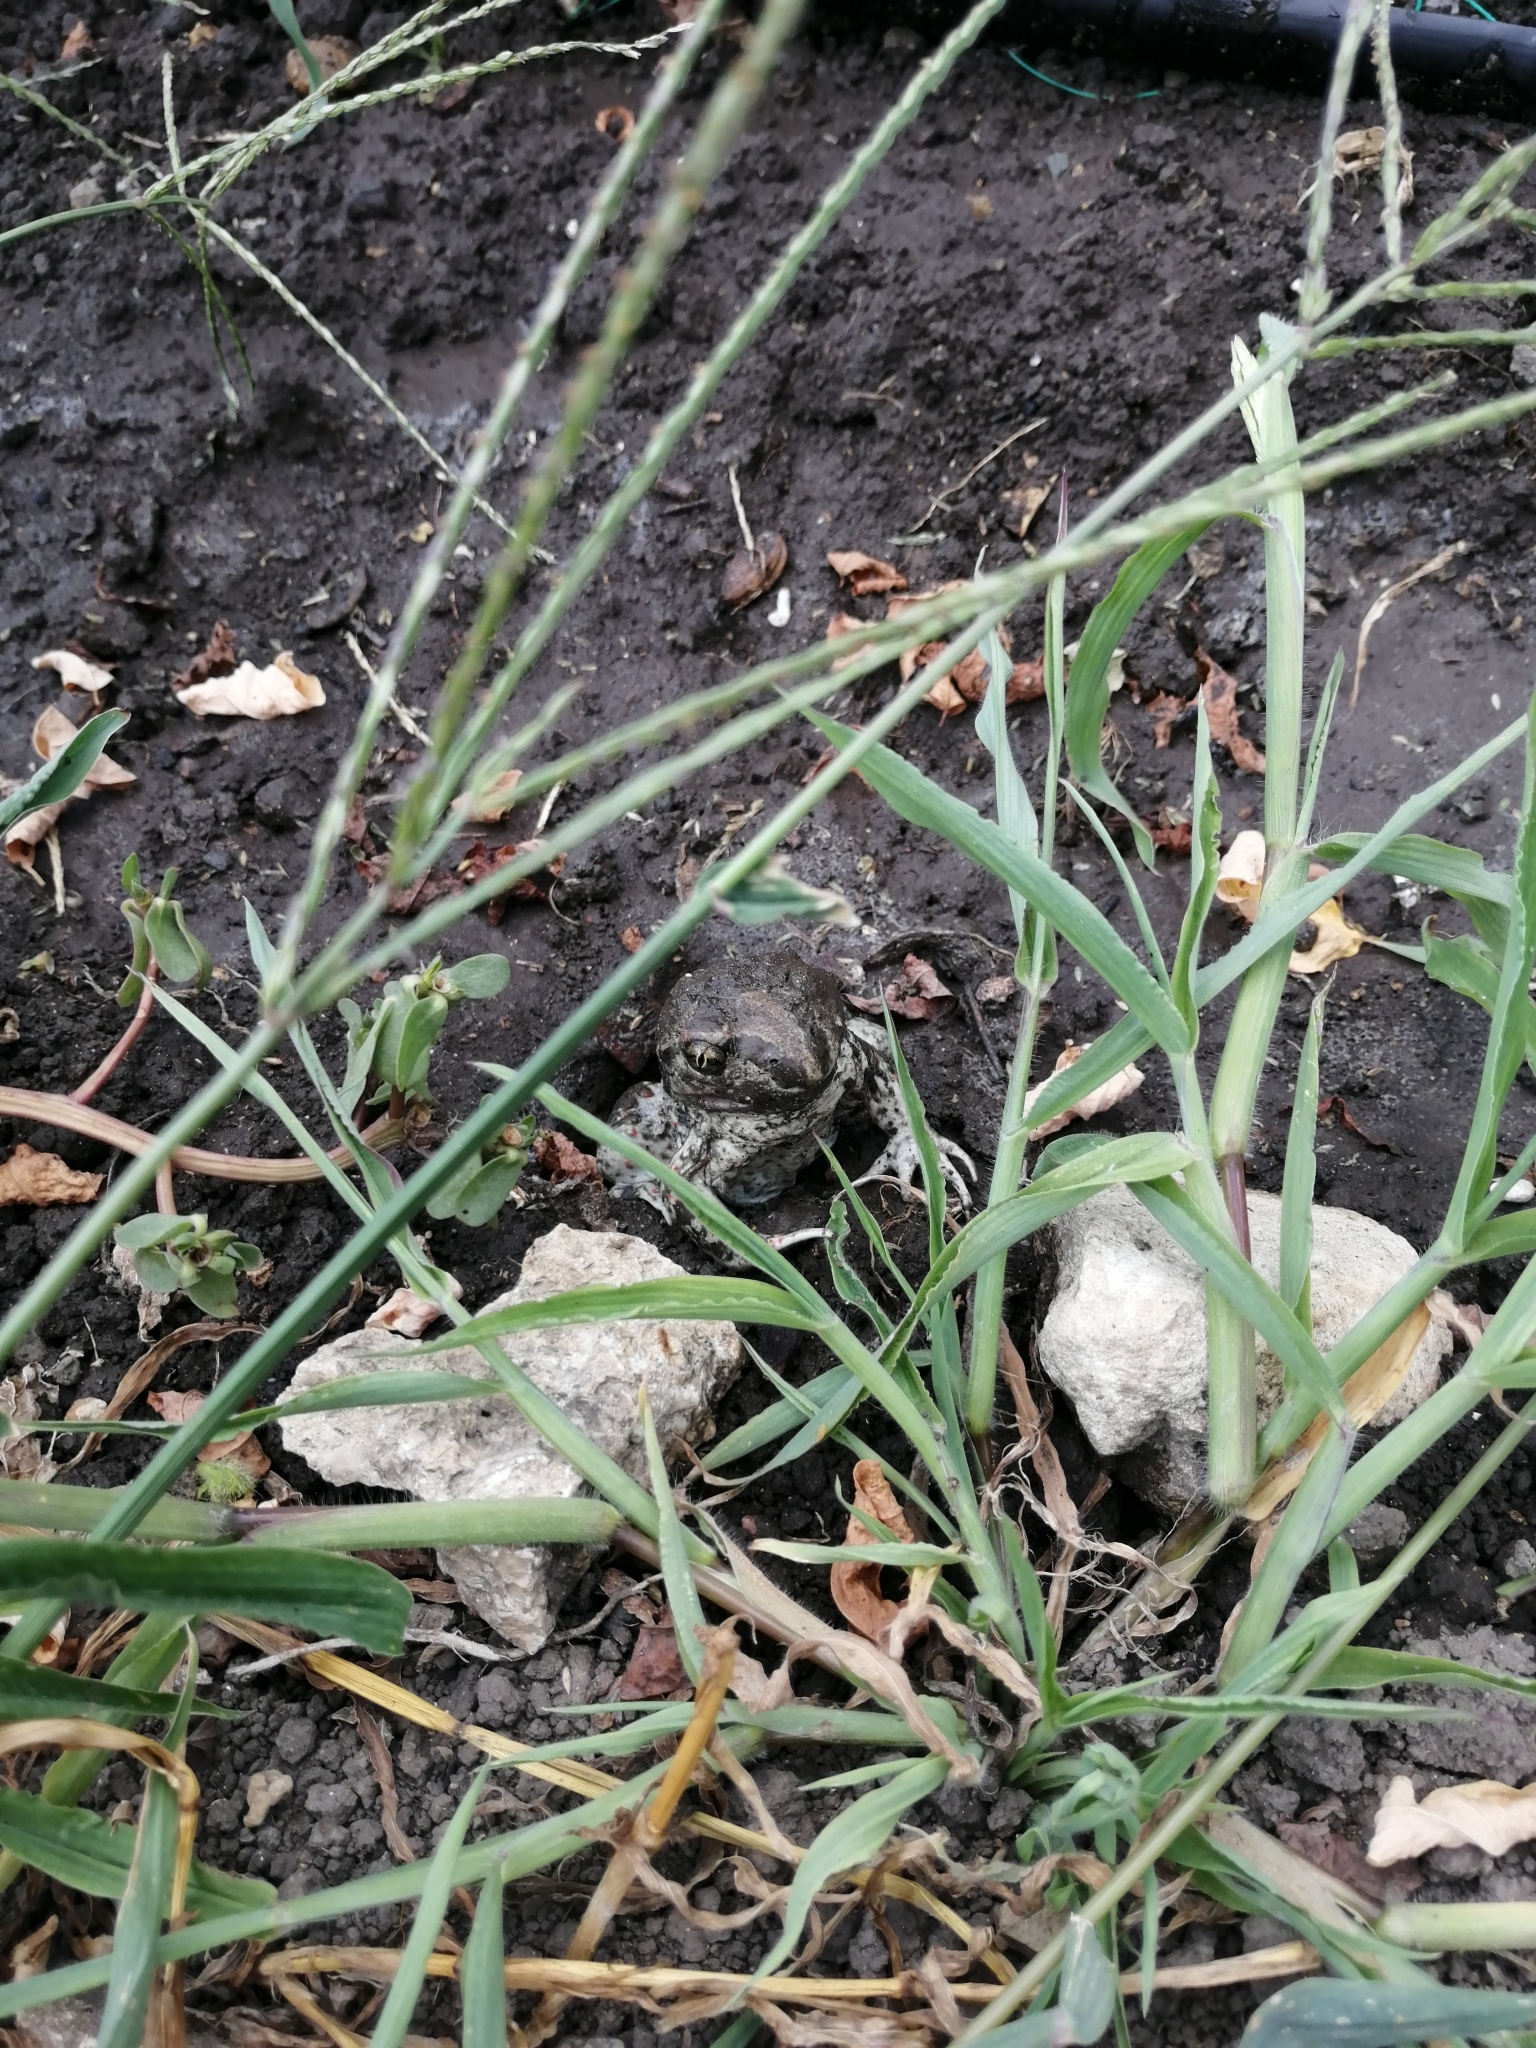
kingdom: Animalia
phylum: Chordata
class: Amphibia
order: Anura
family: Pelobatidae
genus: Pelobates
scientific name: Pelobates vespertinus
